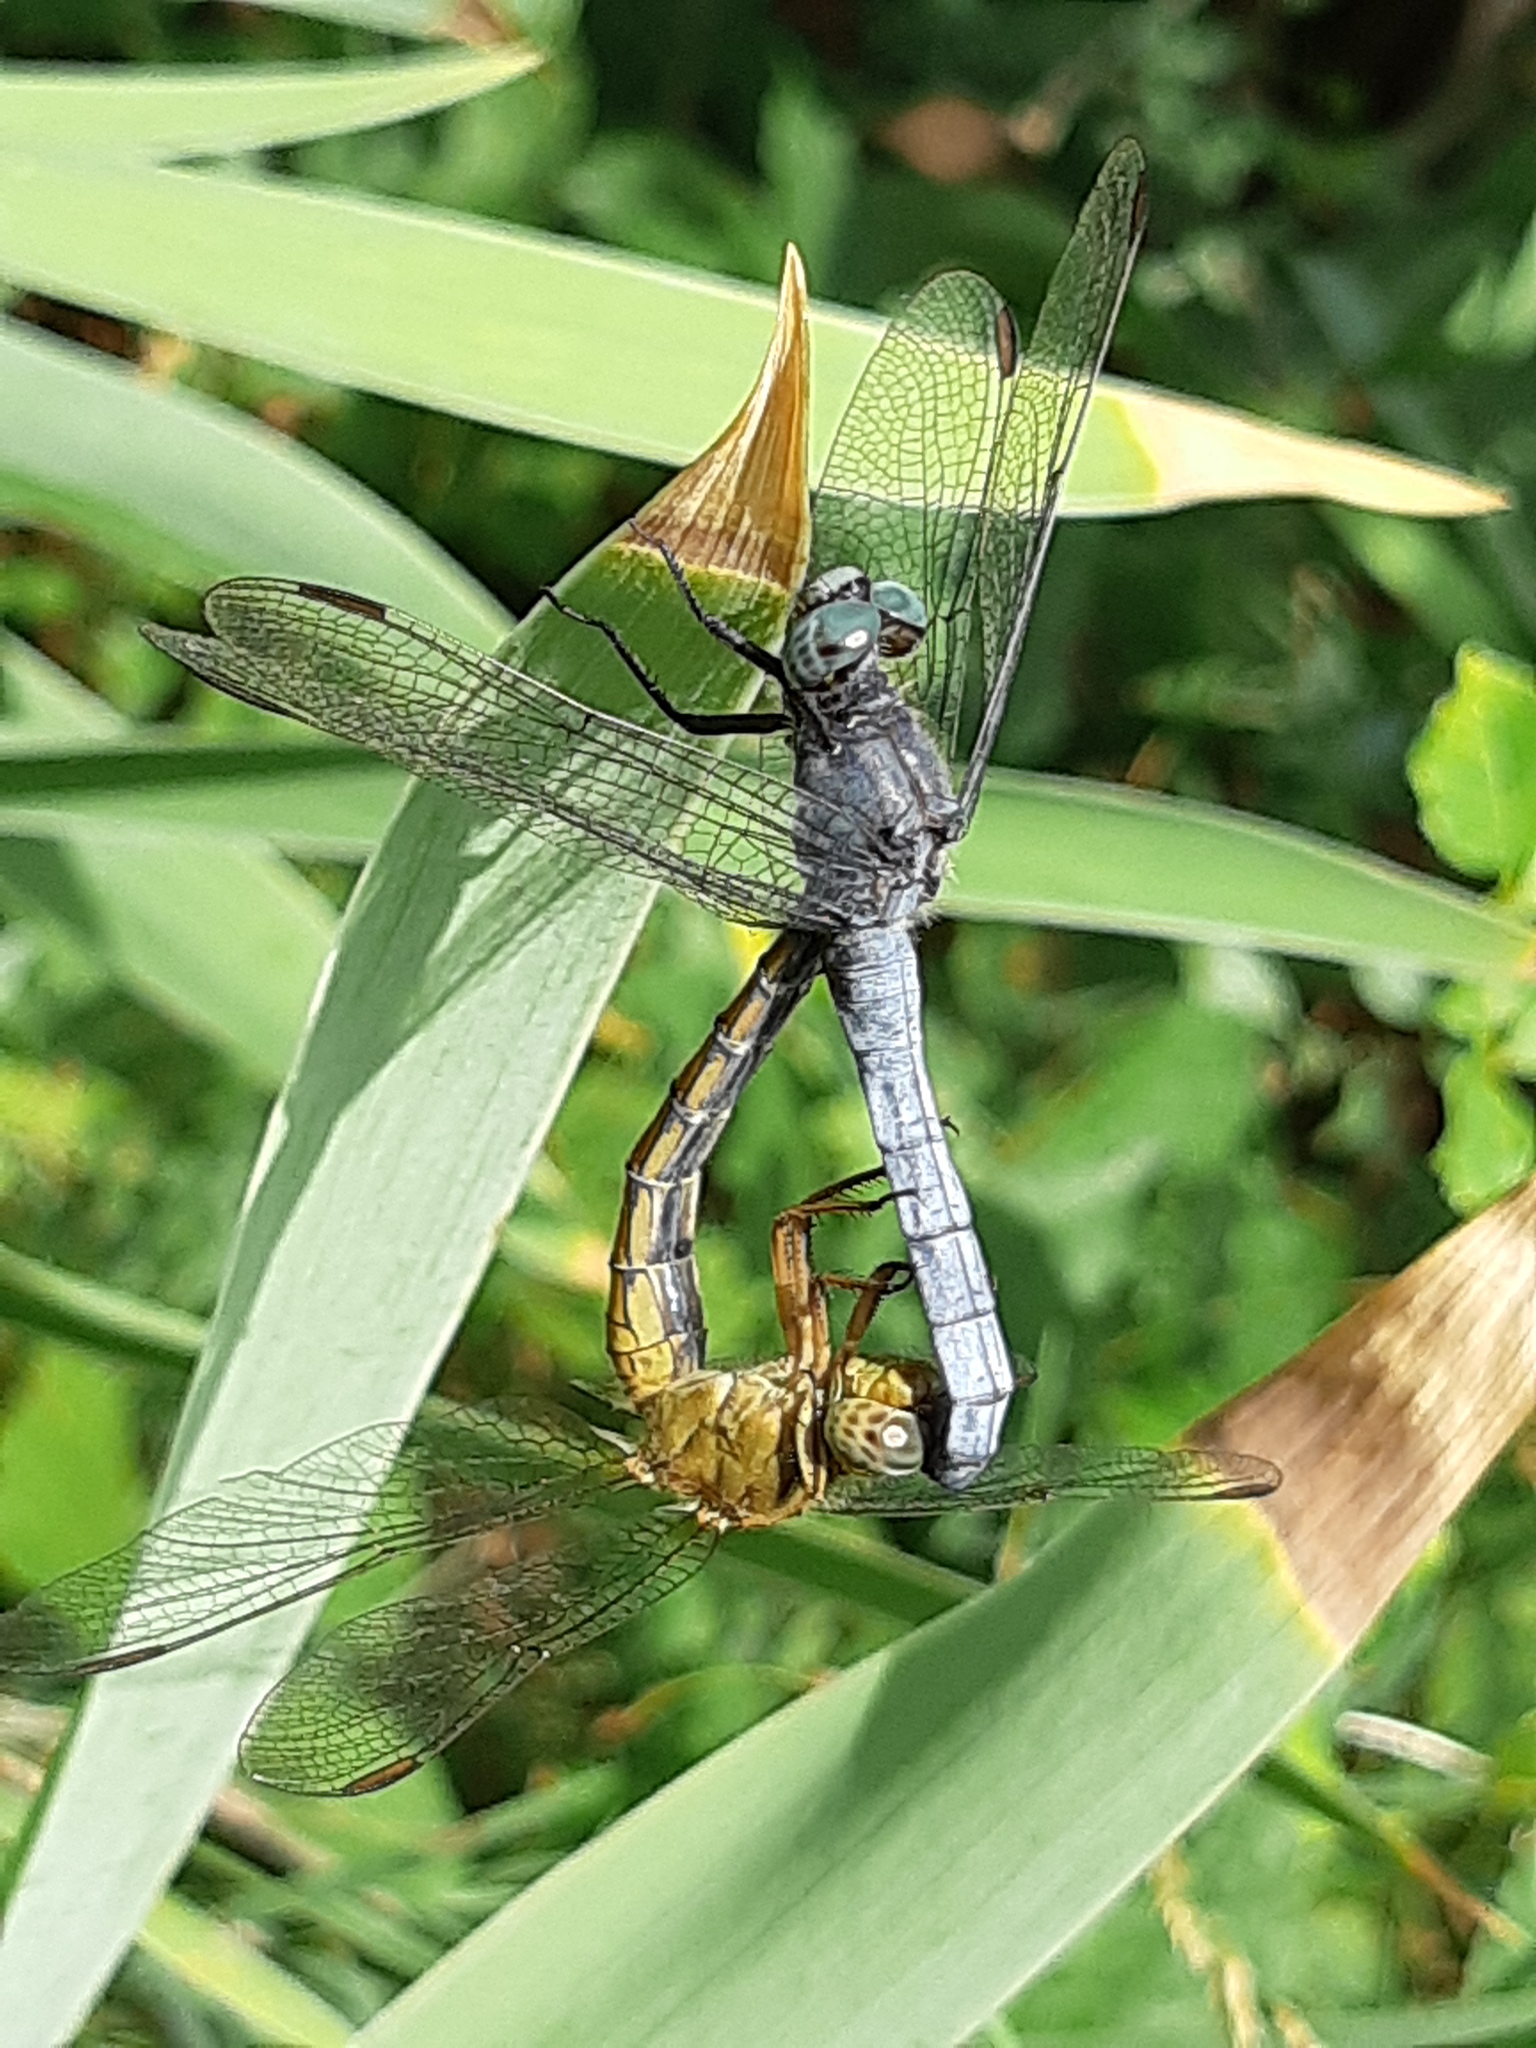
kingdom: Animalia
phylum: Arthropoda
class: Insecta
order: Odonata
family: Libellulidae
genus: Orthetrum
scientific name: Orthetrum coerulescens
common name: Keeled skimmer
